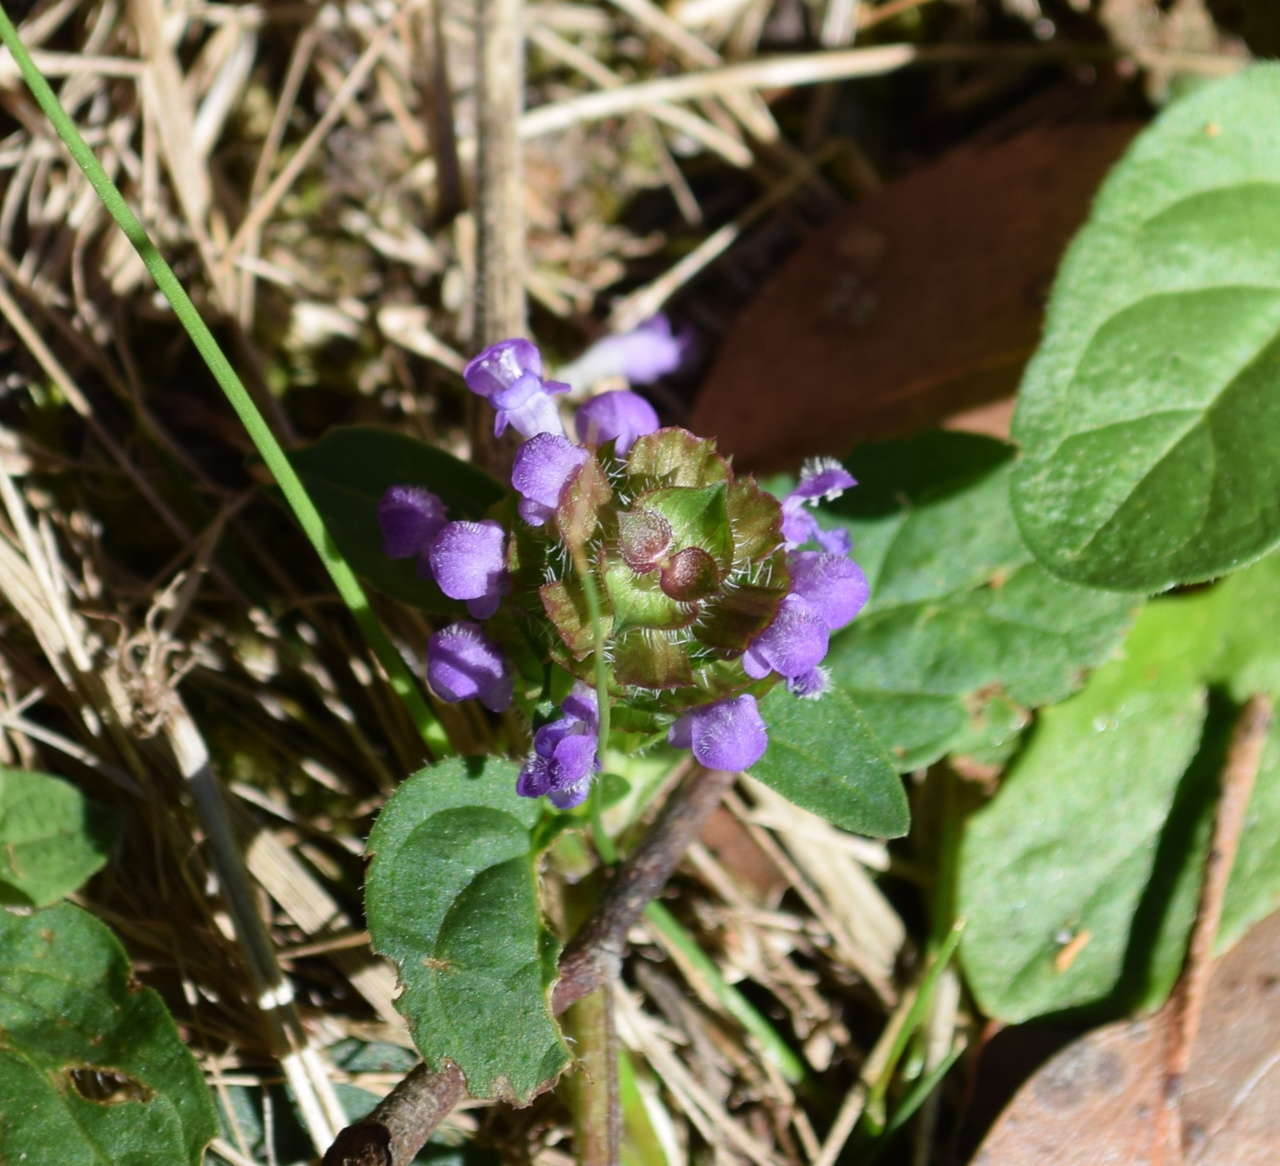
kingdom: Plantae
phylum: Tracheophyta
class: Magnoliopsida
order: Lamiales
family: Lamiaceae
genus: Prunella
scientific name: Prunella vulgaris
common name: Heal-all
